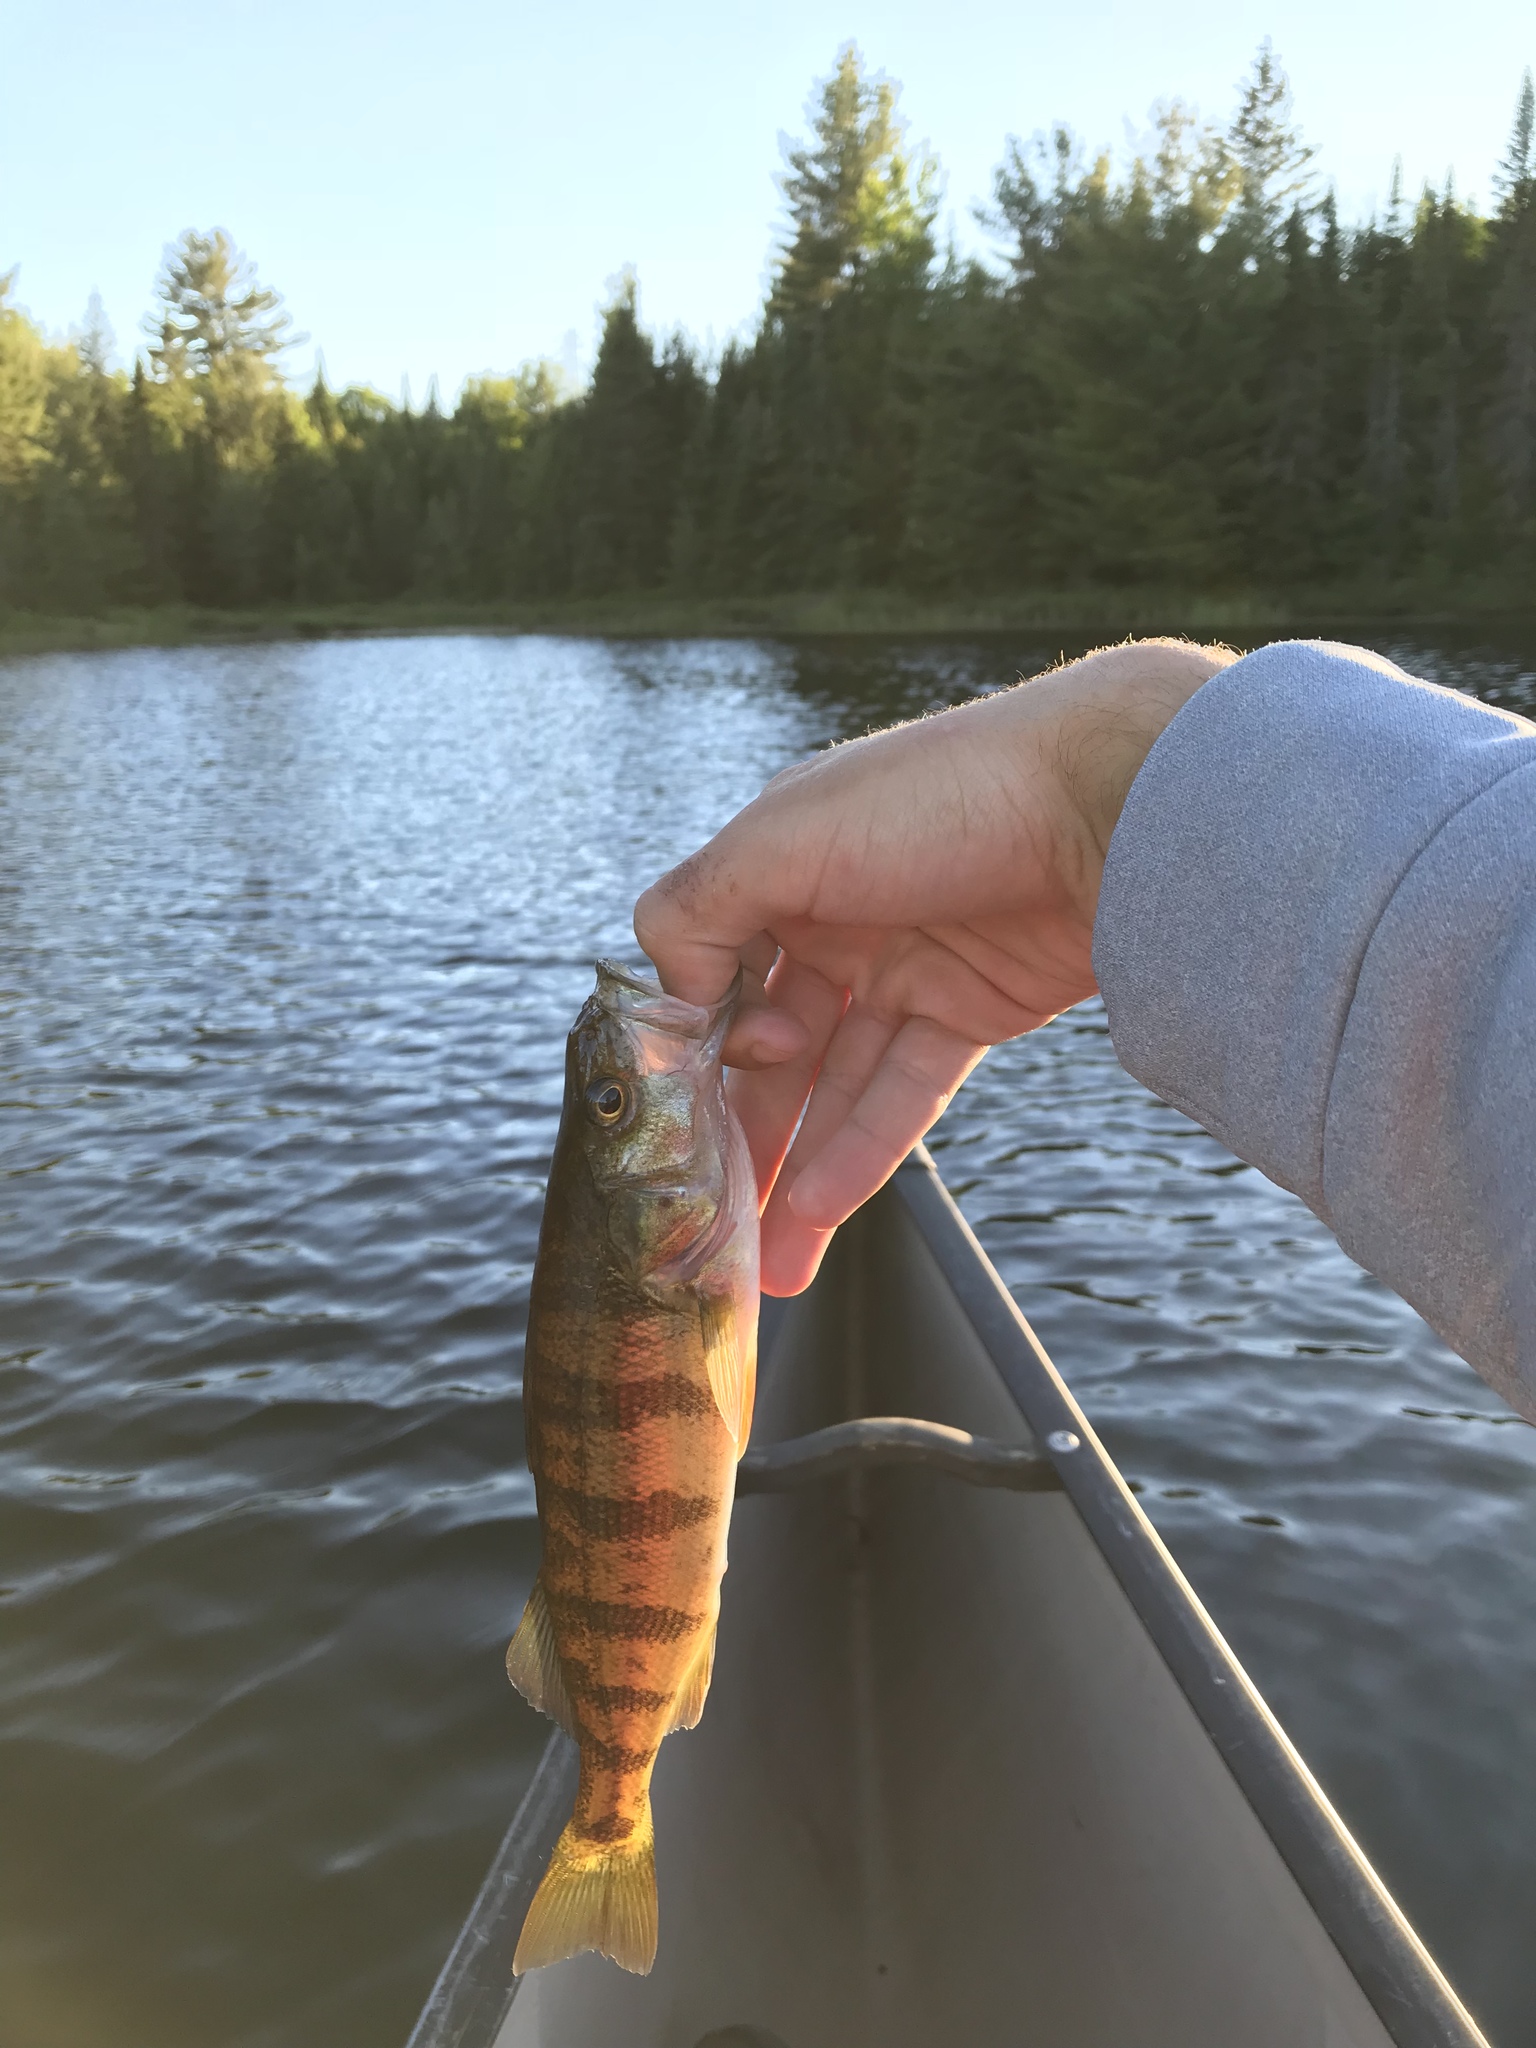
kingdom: Animalia
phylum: Chordata
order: Perciformes
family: Percidae
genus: Perca
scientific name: Perca flavescens
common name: Yellow perch
